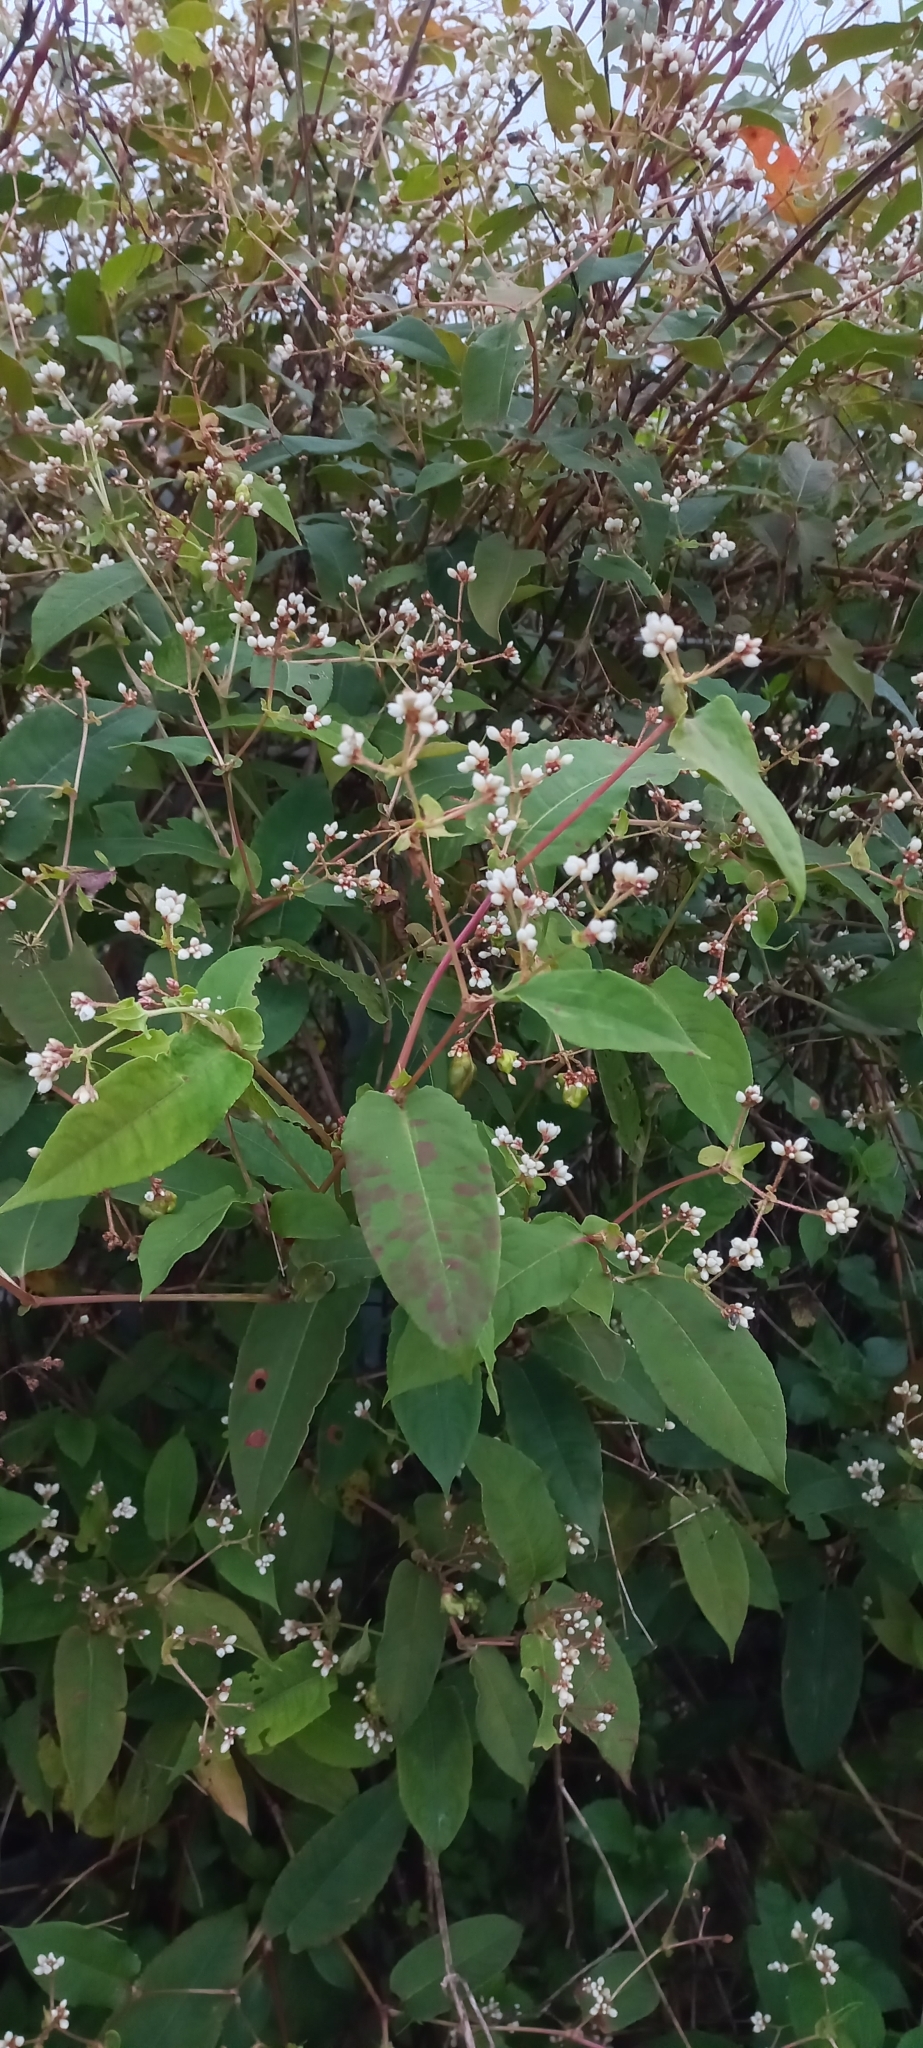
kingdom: Plantae
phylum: Tracheophyta
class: Magnoliopsida
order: Caryophyllales
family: Polygonaceae
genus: Persicaria
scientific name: Persicaria chinensis
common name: Chinese knotweed
